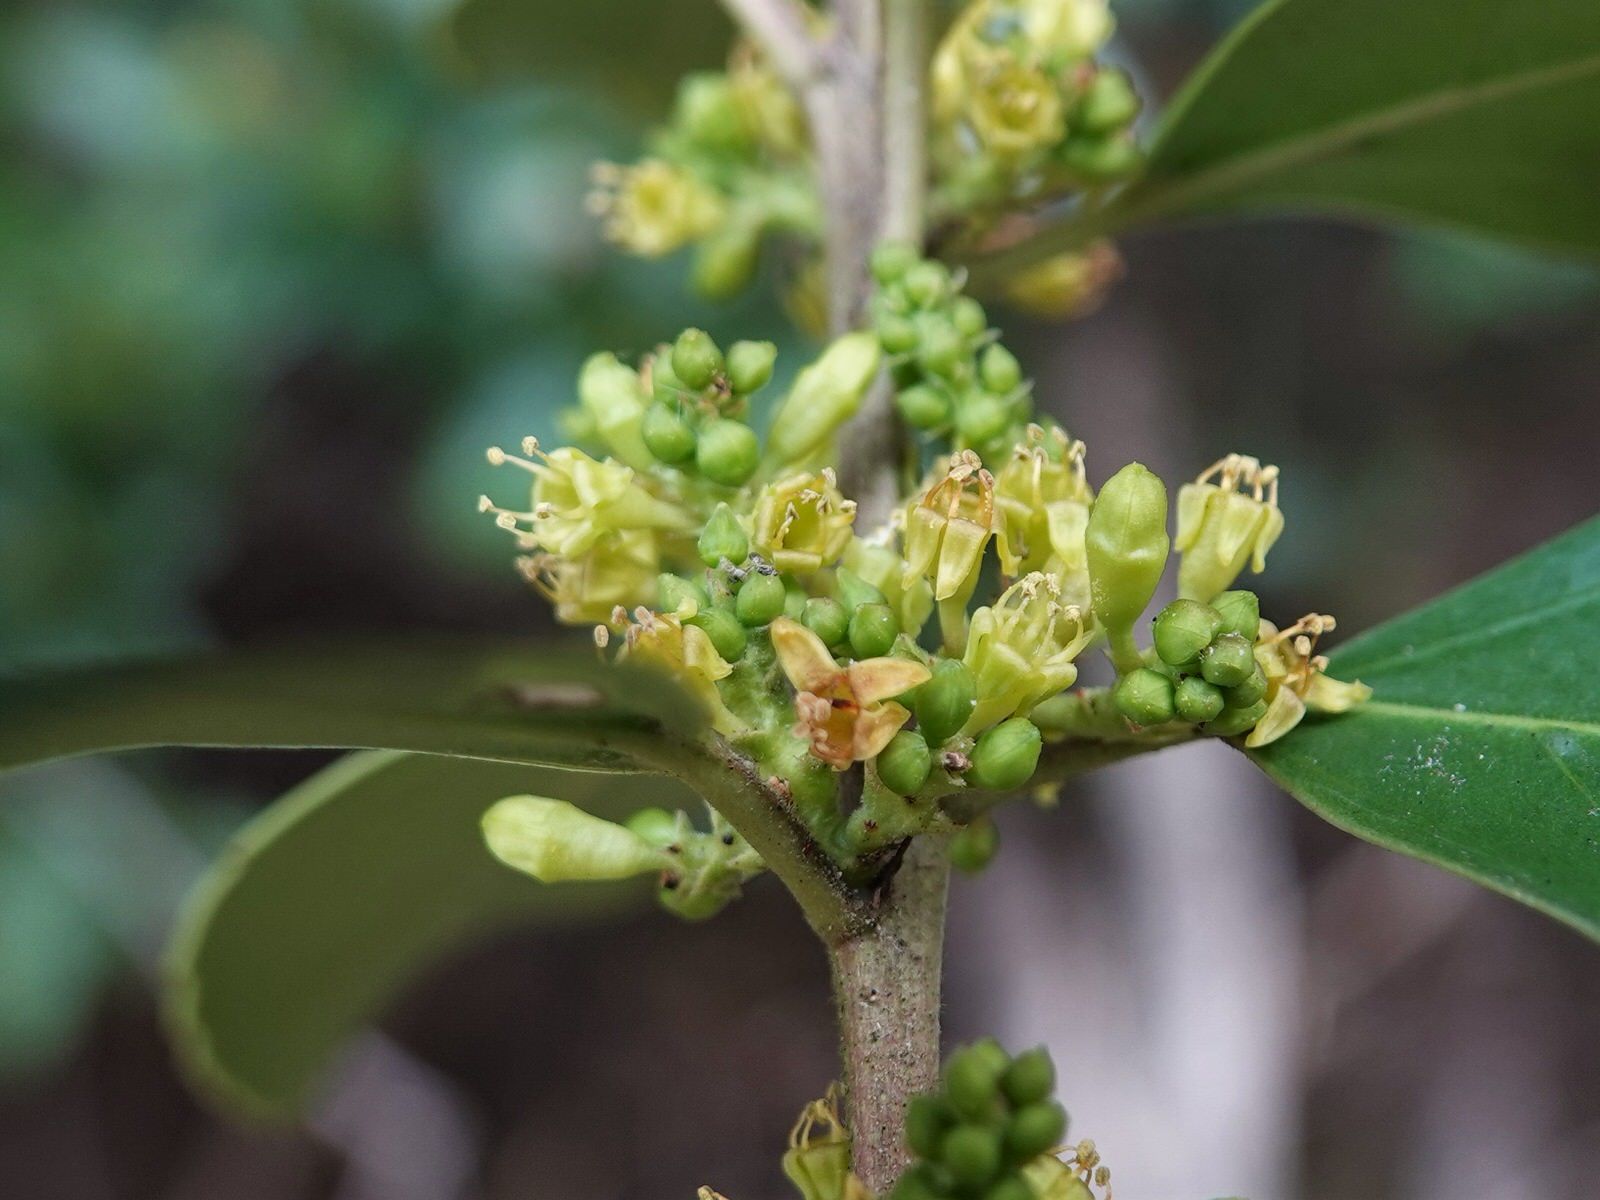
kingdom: Plantae
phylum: Tracheophyta
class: Magnoliopsida
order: Rosales
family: Rhamnaceae
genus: Rhamnus
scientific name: Rhamnus alaternus
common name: Mediterranean buckthorn
